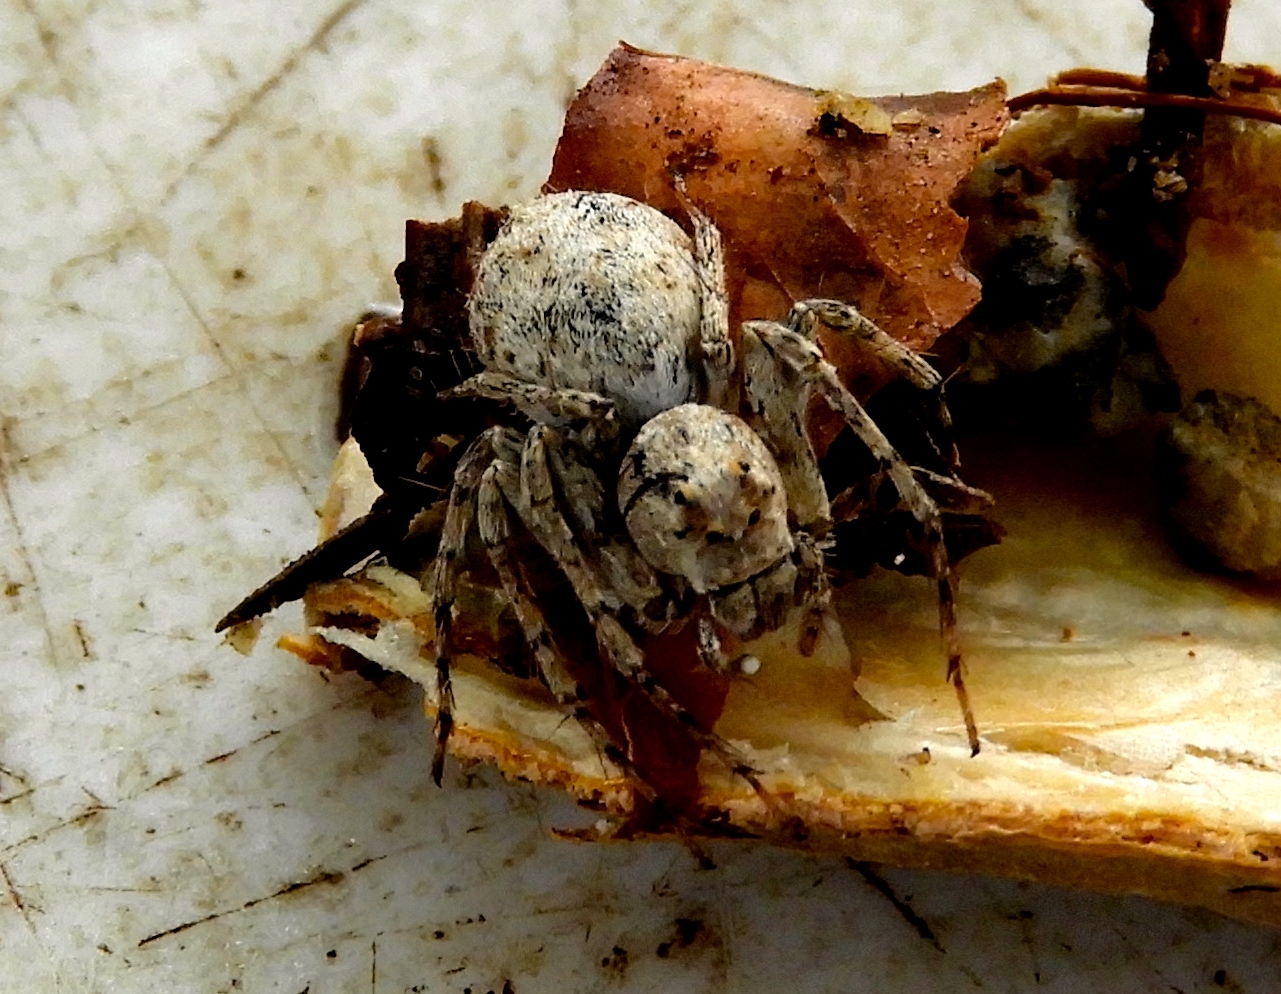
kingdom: Animalia
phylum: Arthropoda
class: Arachnida
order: Araneae
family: Oxyopidae
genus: Hamataliwa
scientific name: Hamataliwa
